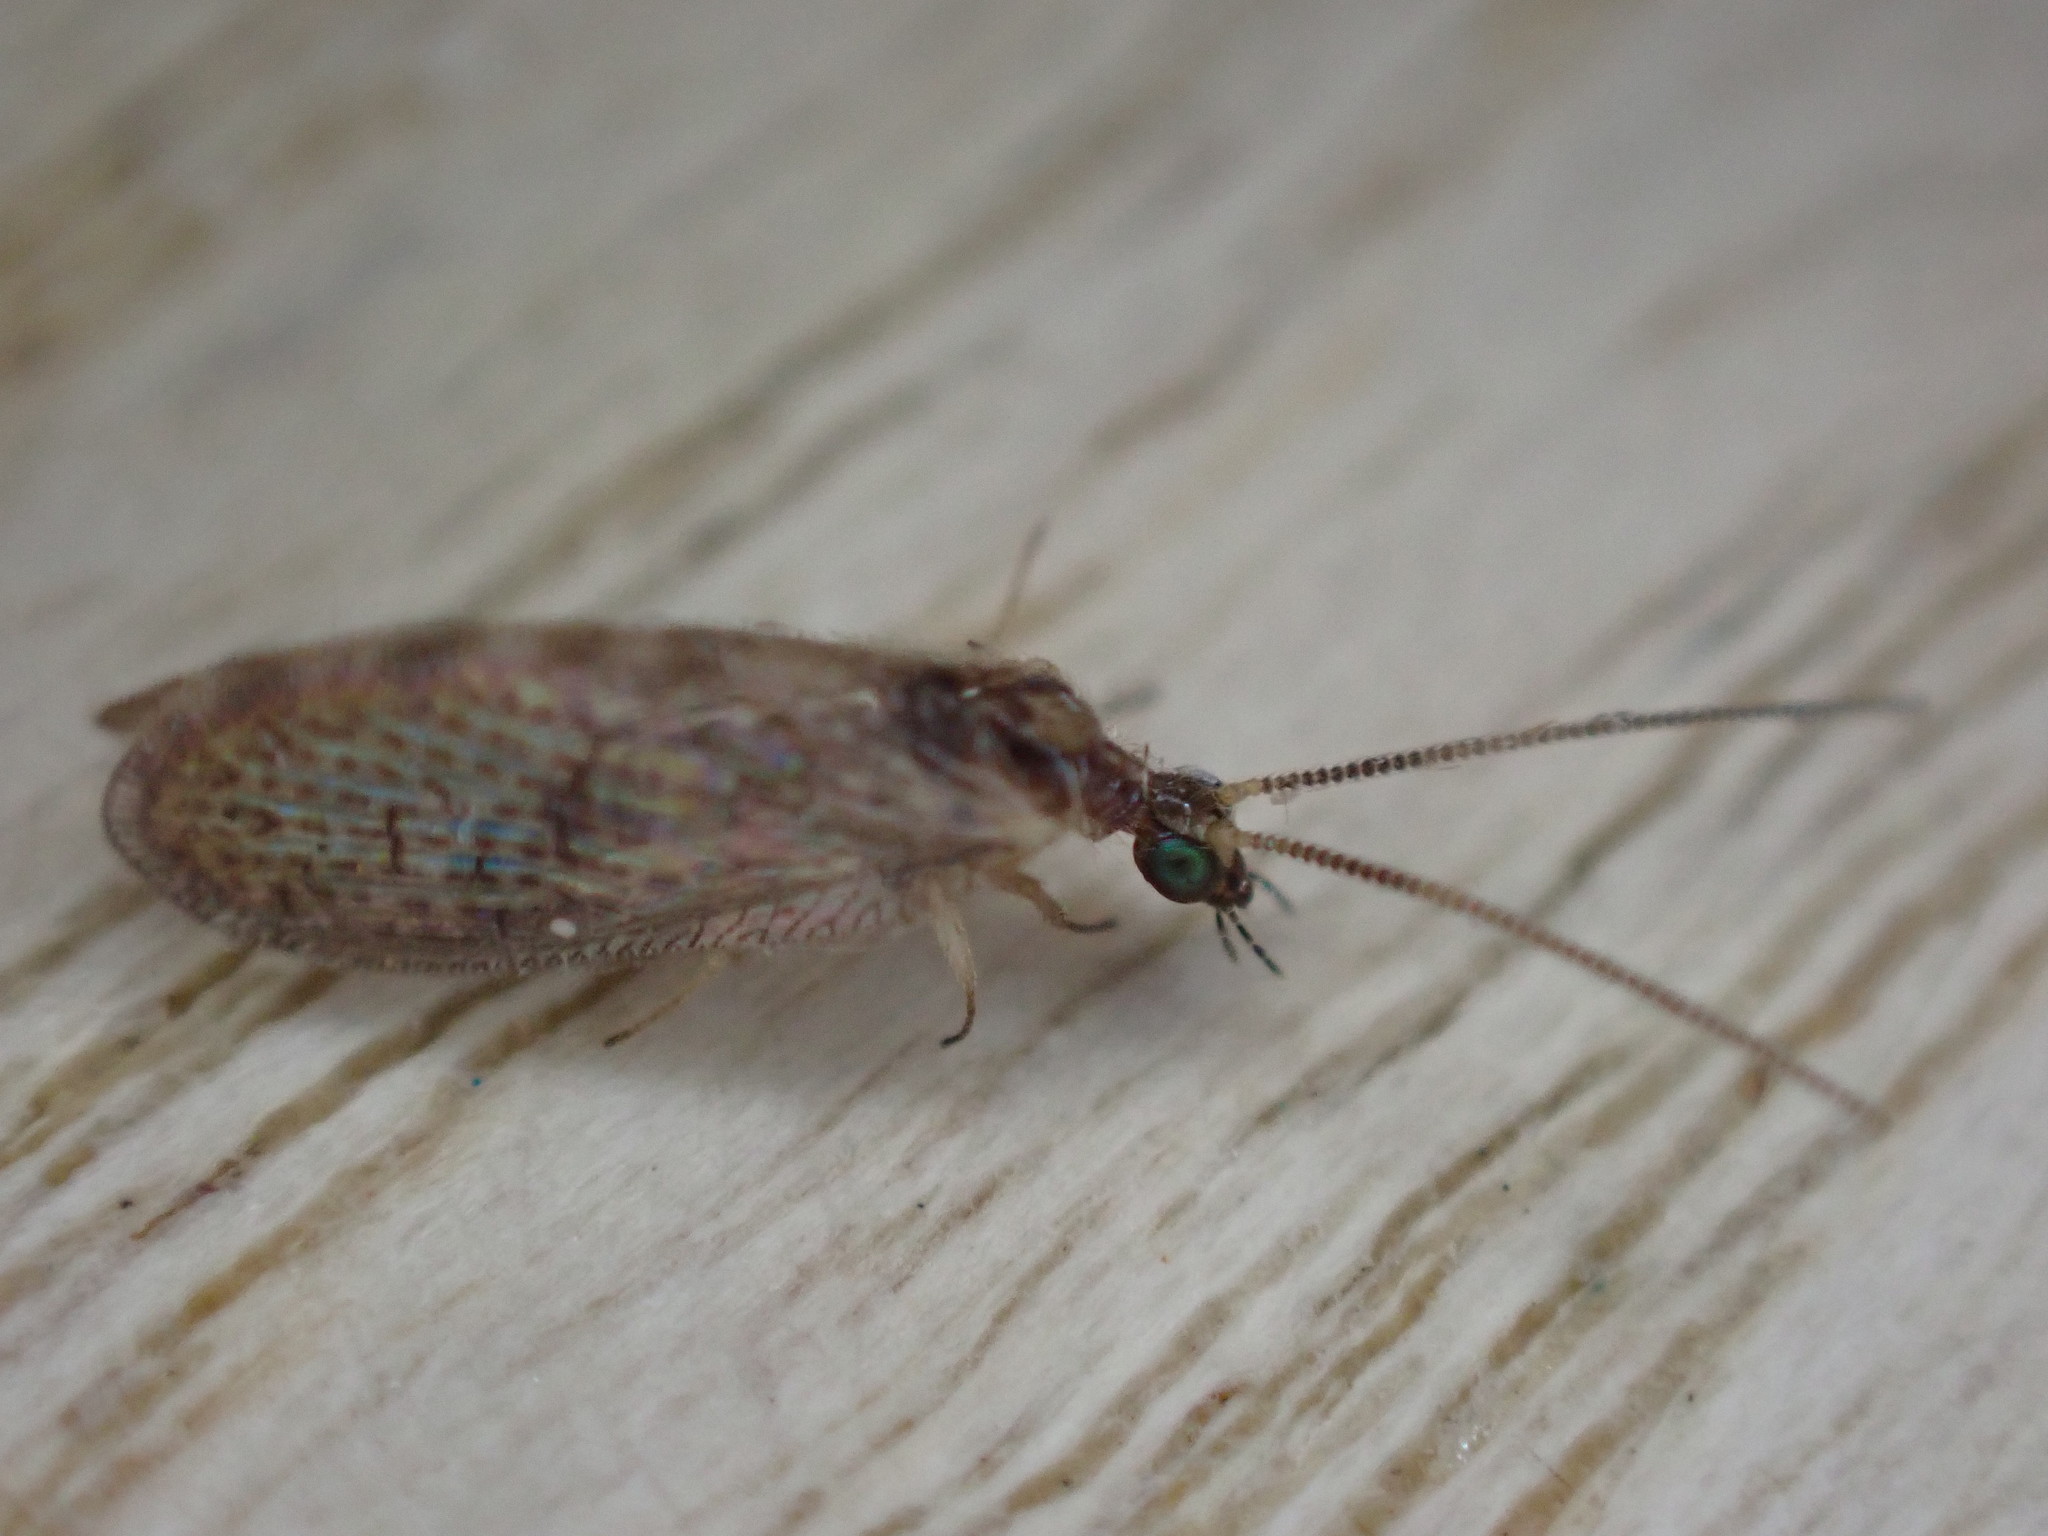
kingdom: Animalia
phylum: Arthropoda
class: Insecta
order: Neuroptera
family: Hemerobiidae
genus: Sympherobius
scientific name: Sympherobius pygmaeus
